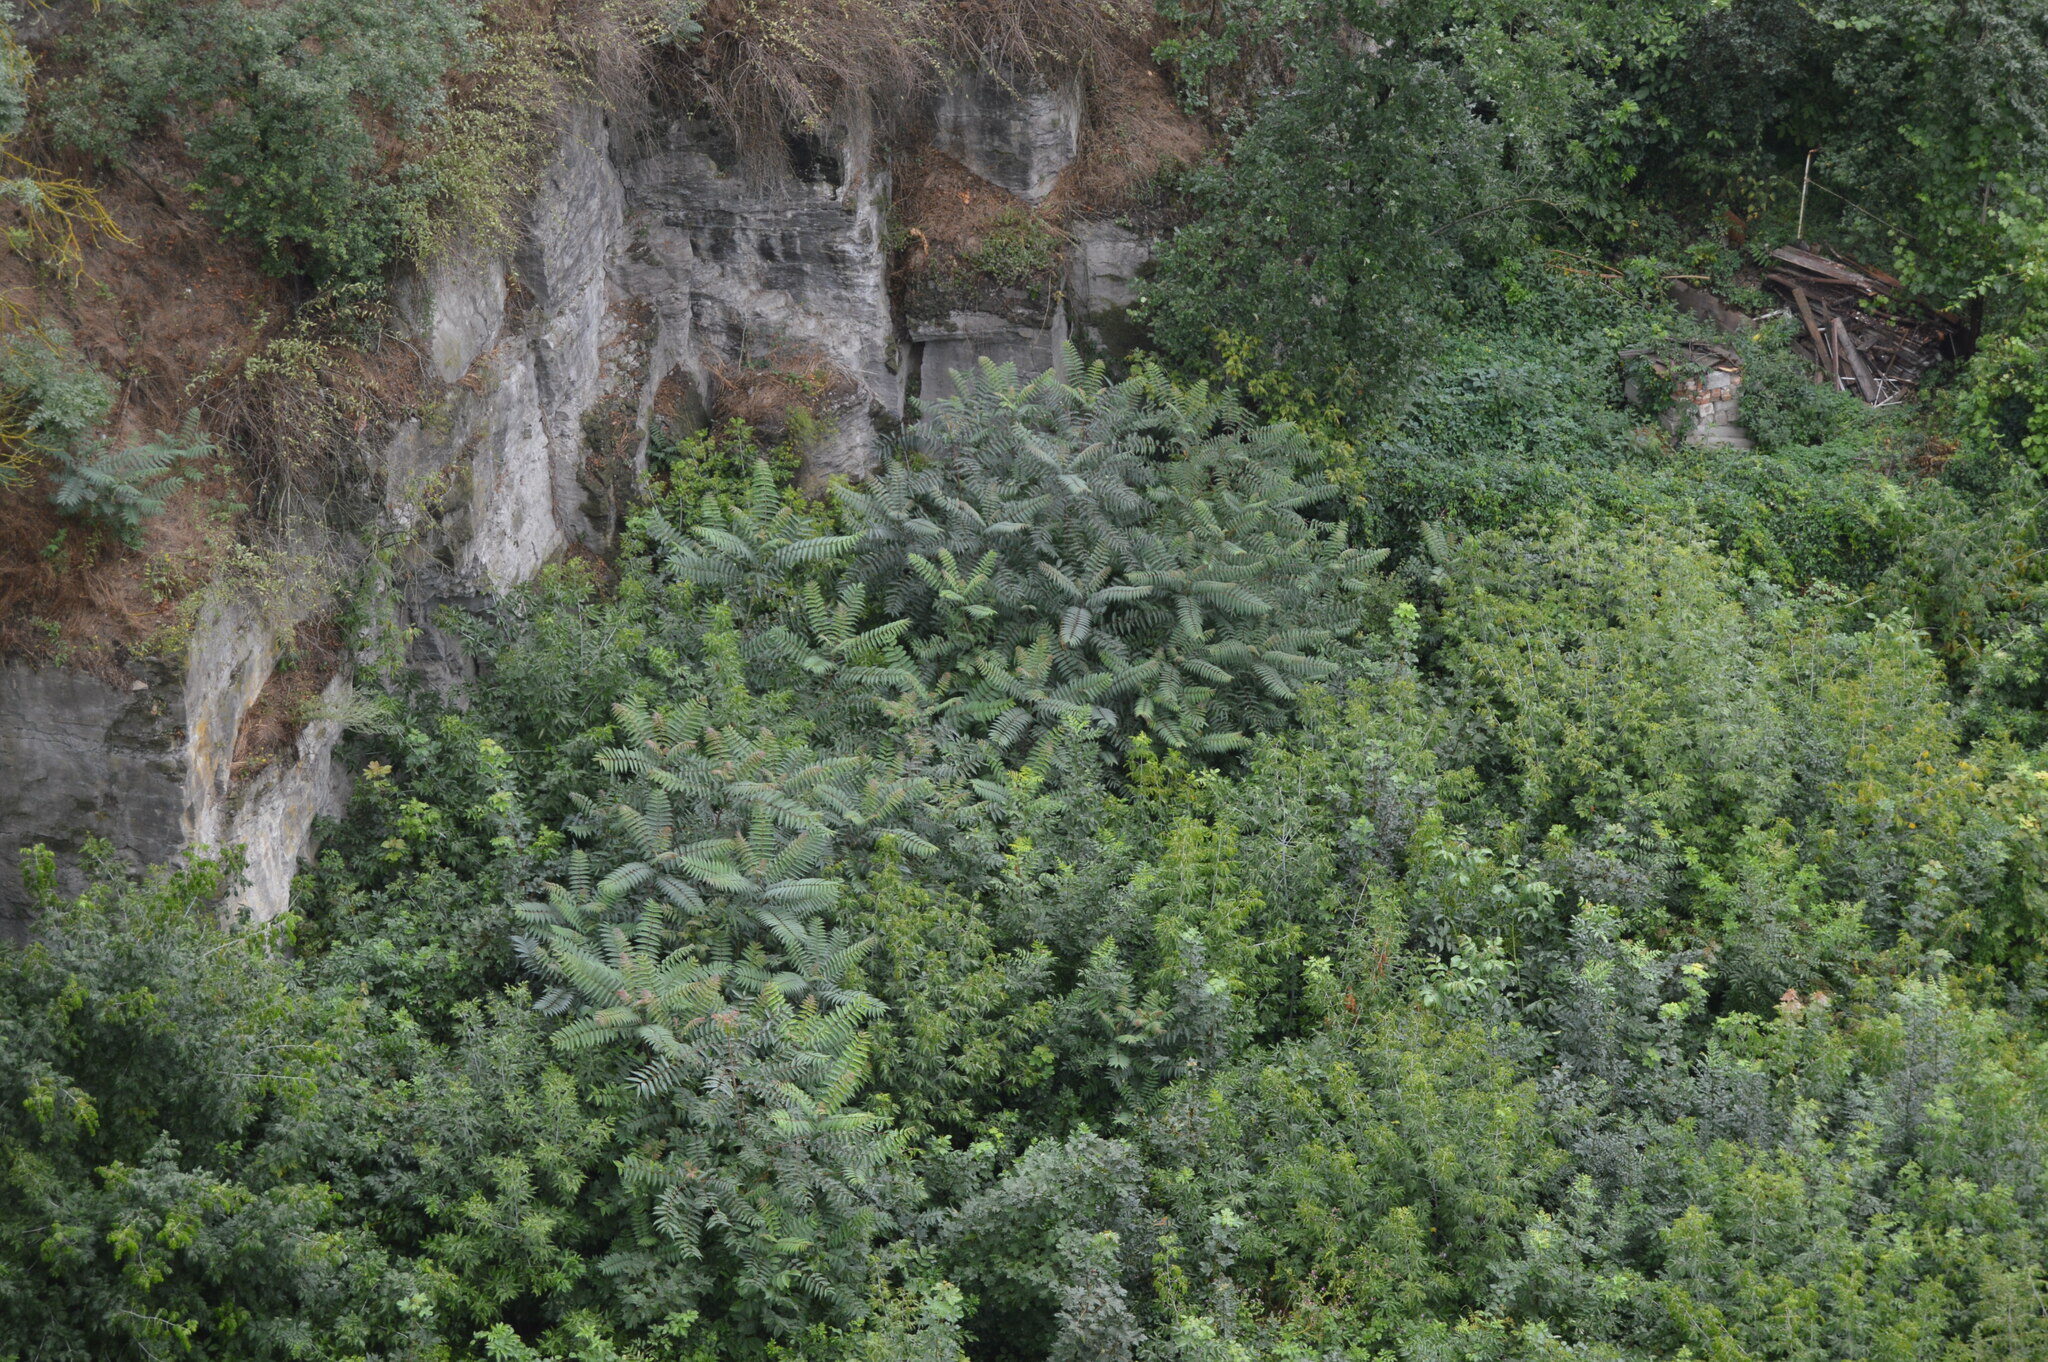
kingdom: Plantae
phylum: Tracheophyta
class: Magnoliopsida
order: Sapindales
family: Simaroubaceae
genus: Ailanthus
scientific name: Ailanthus altissima
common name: Tree-of-heaven
